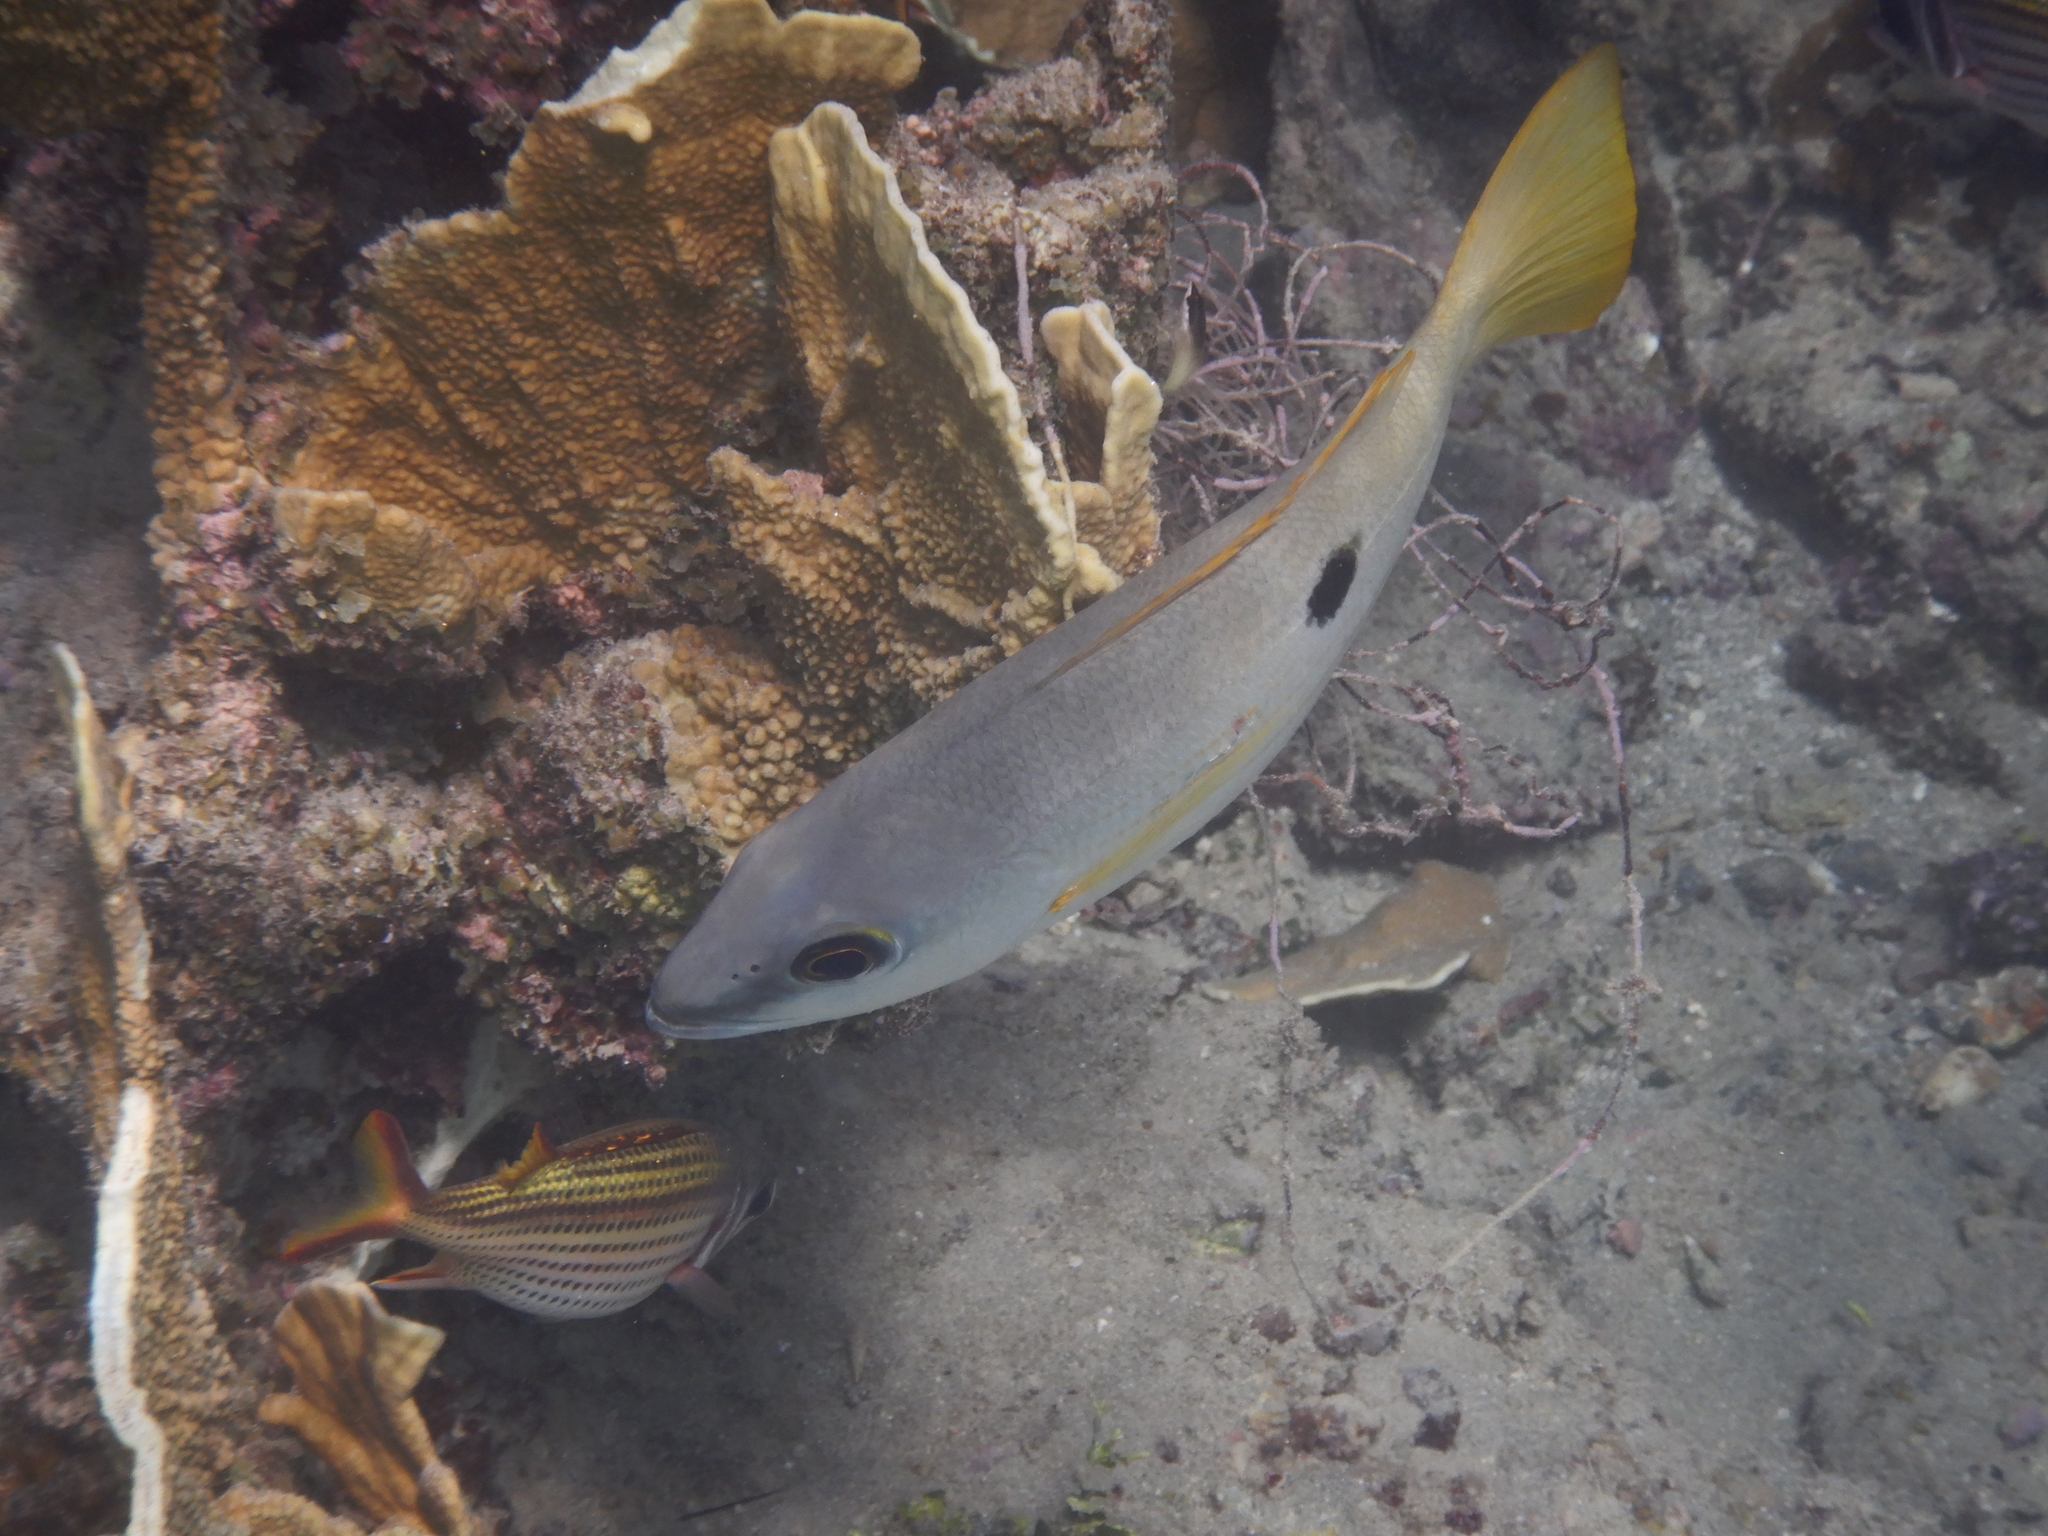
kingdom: Animalia
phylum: Chordata
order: Perciformes
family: Lutjanidae
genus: Lutjanus
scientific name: Lutjanus ehrenbergii
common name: Blackspot snapper
